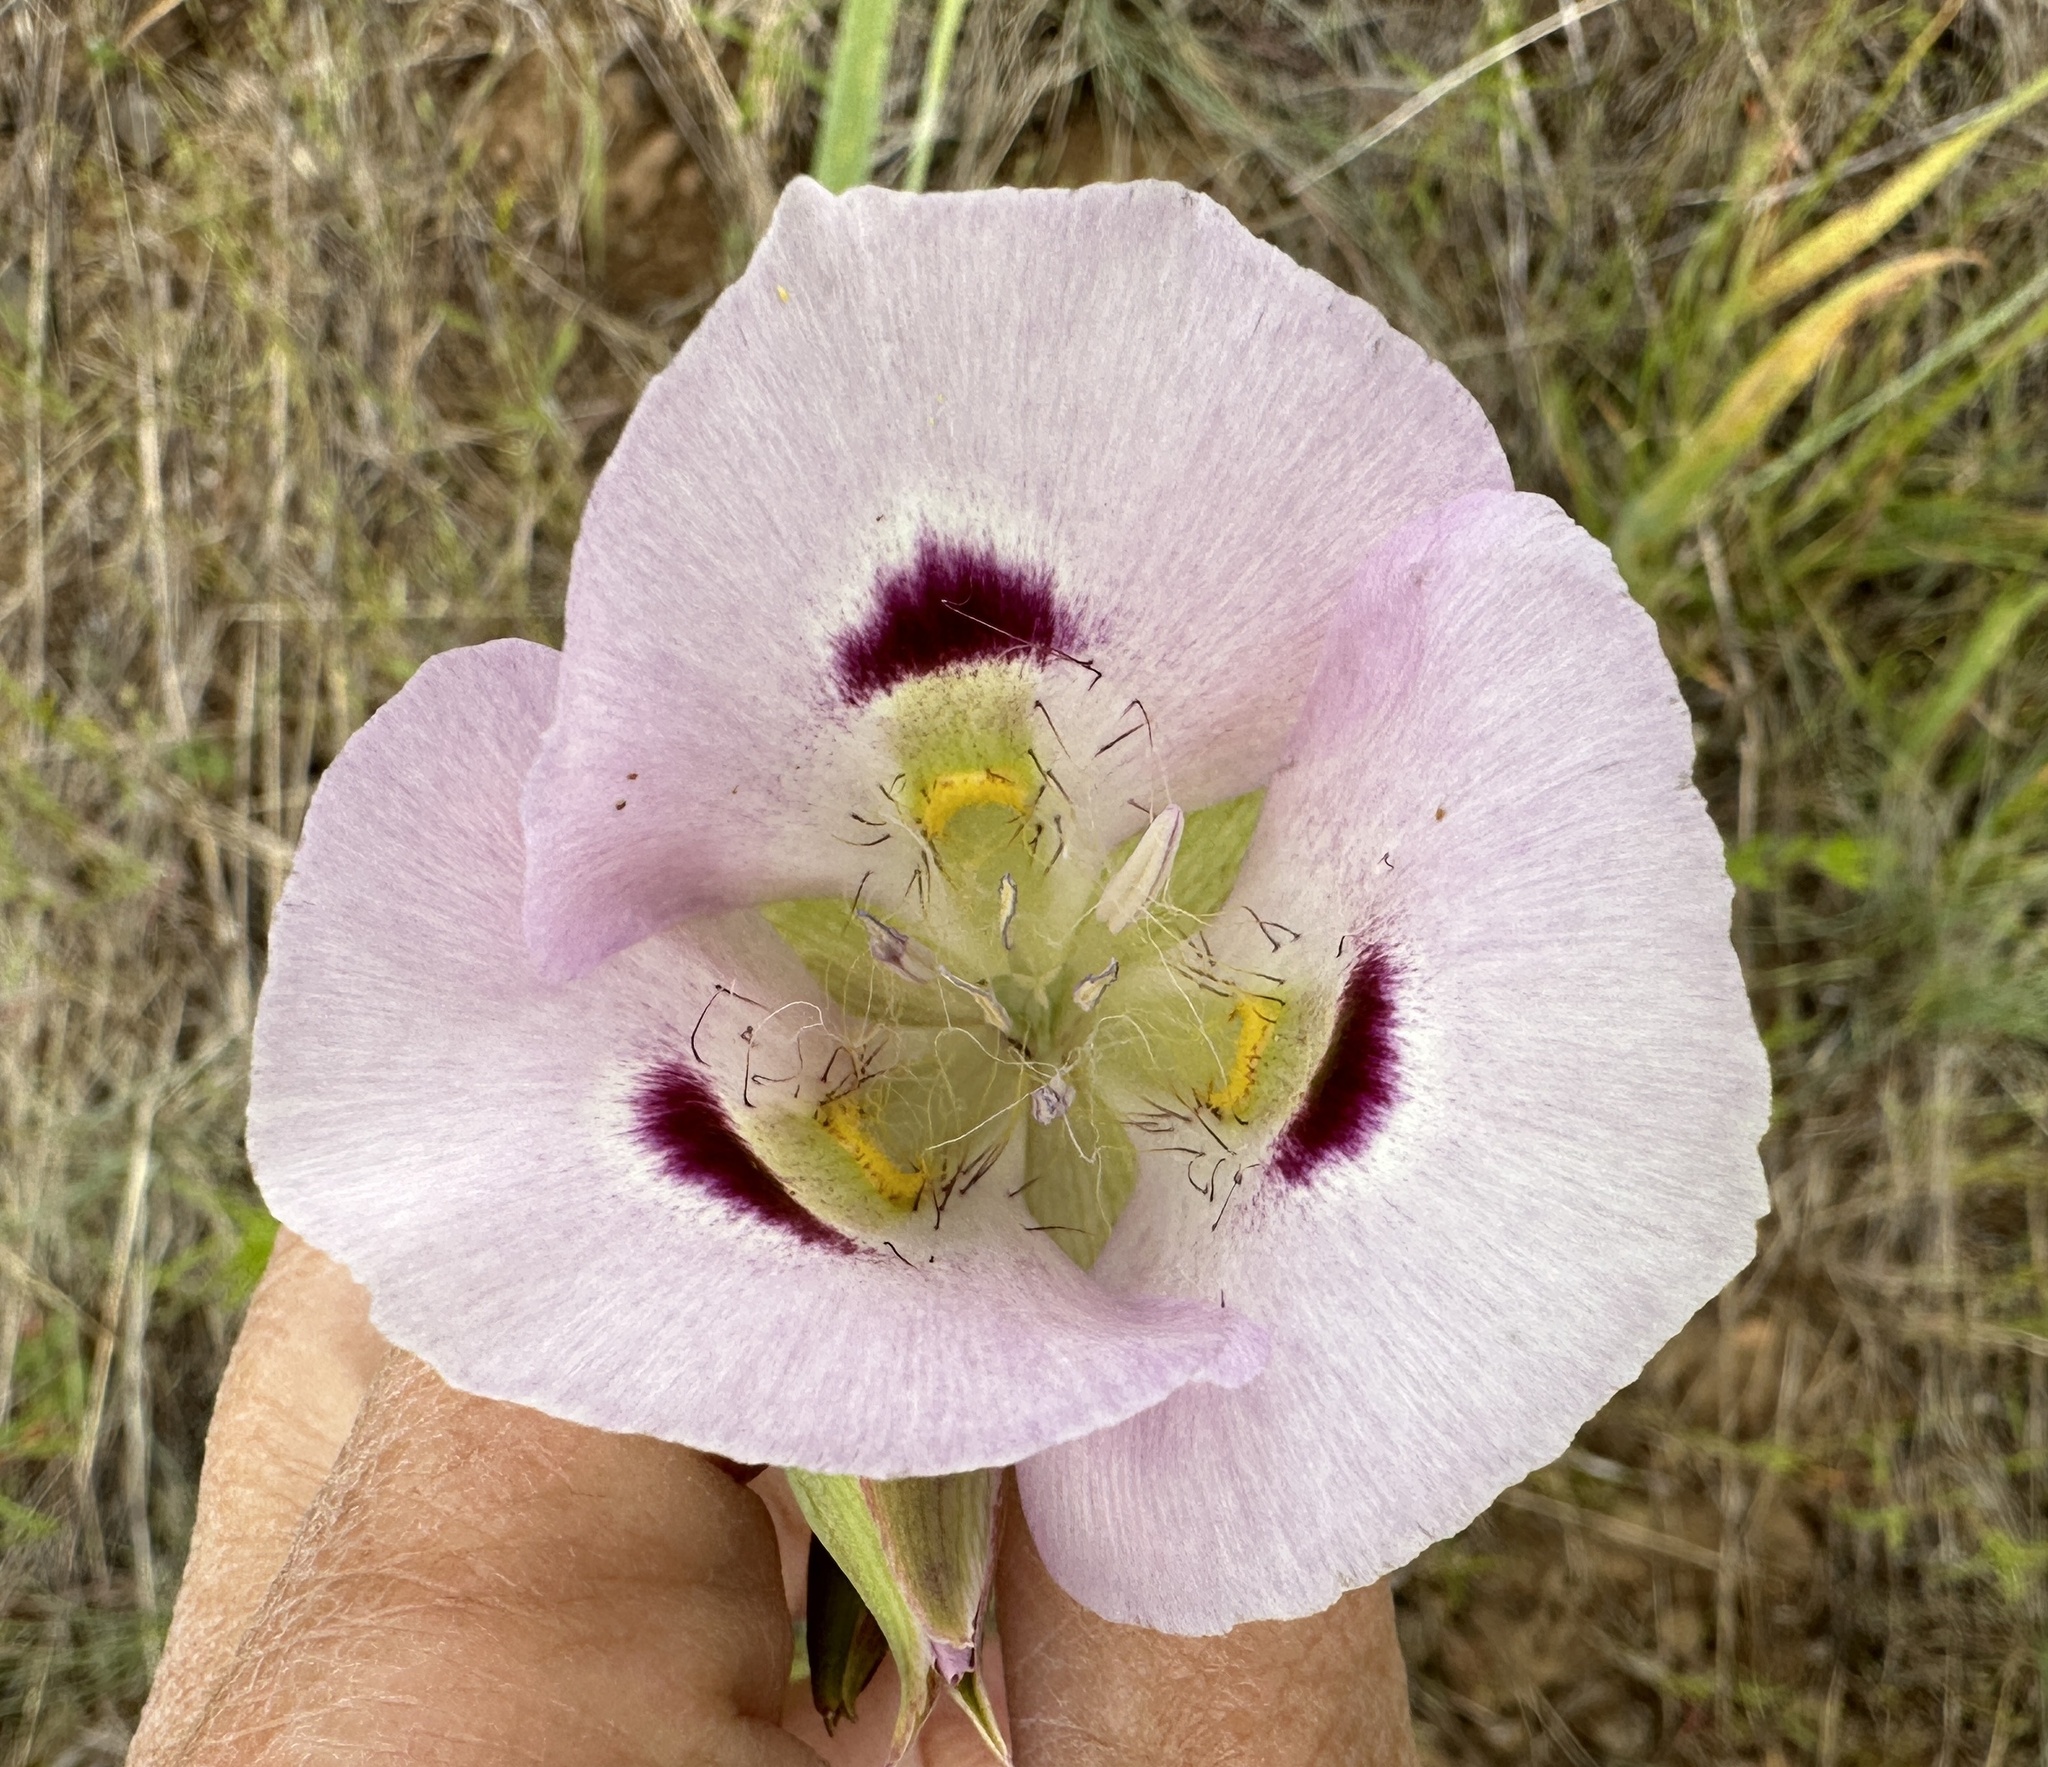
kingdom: Plantae
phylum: Tracheophyta
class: Liliopsida
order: Liliales
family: Liliaceae
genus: Calochortus
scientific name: Calochortus eurycarpus
